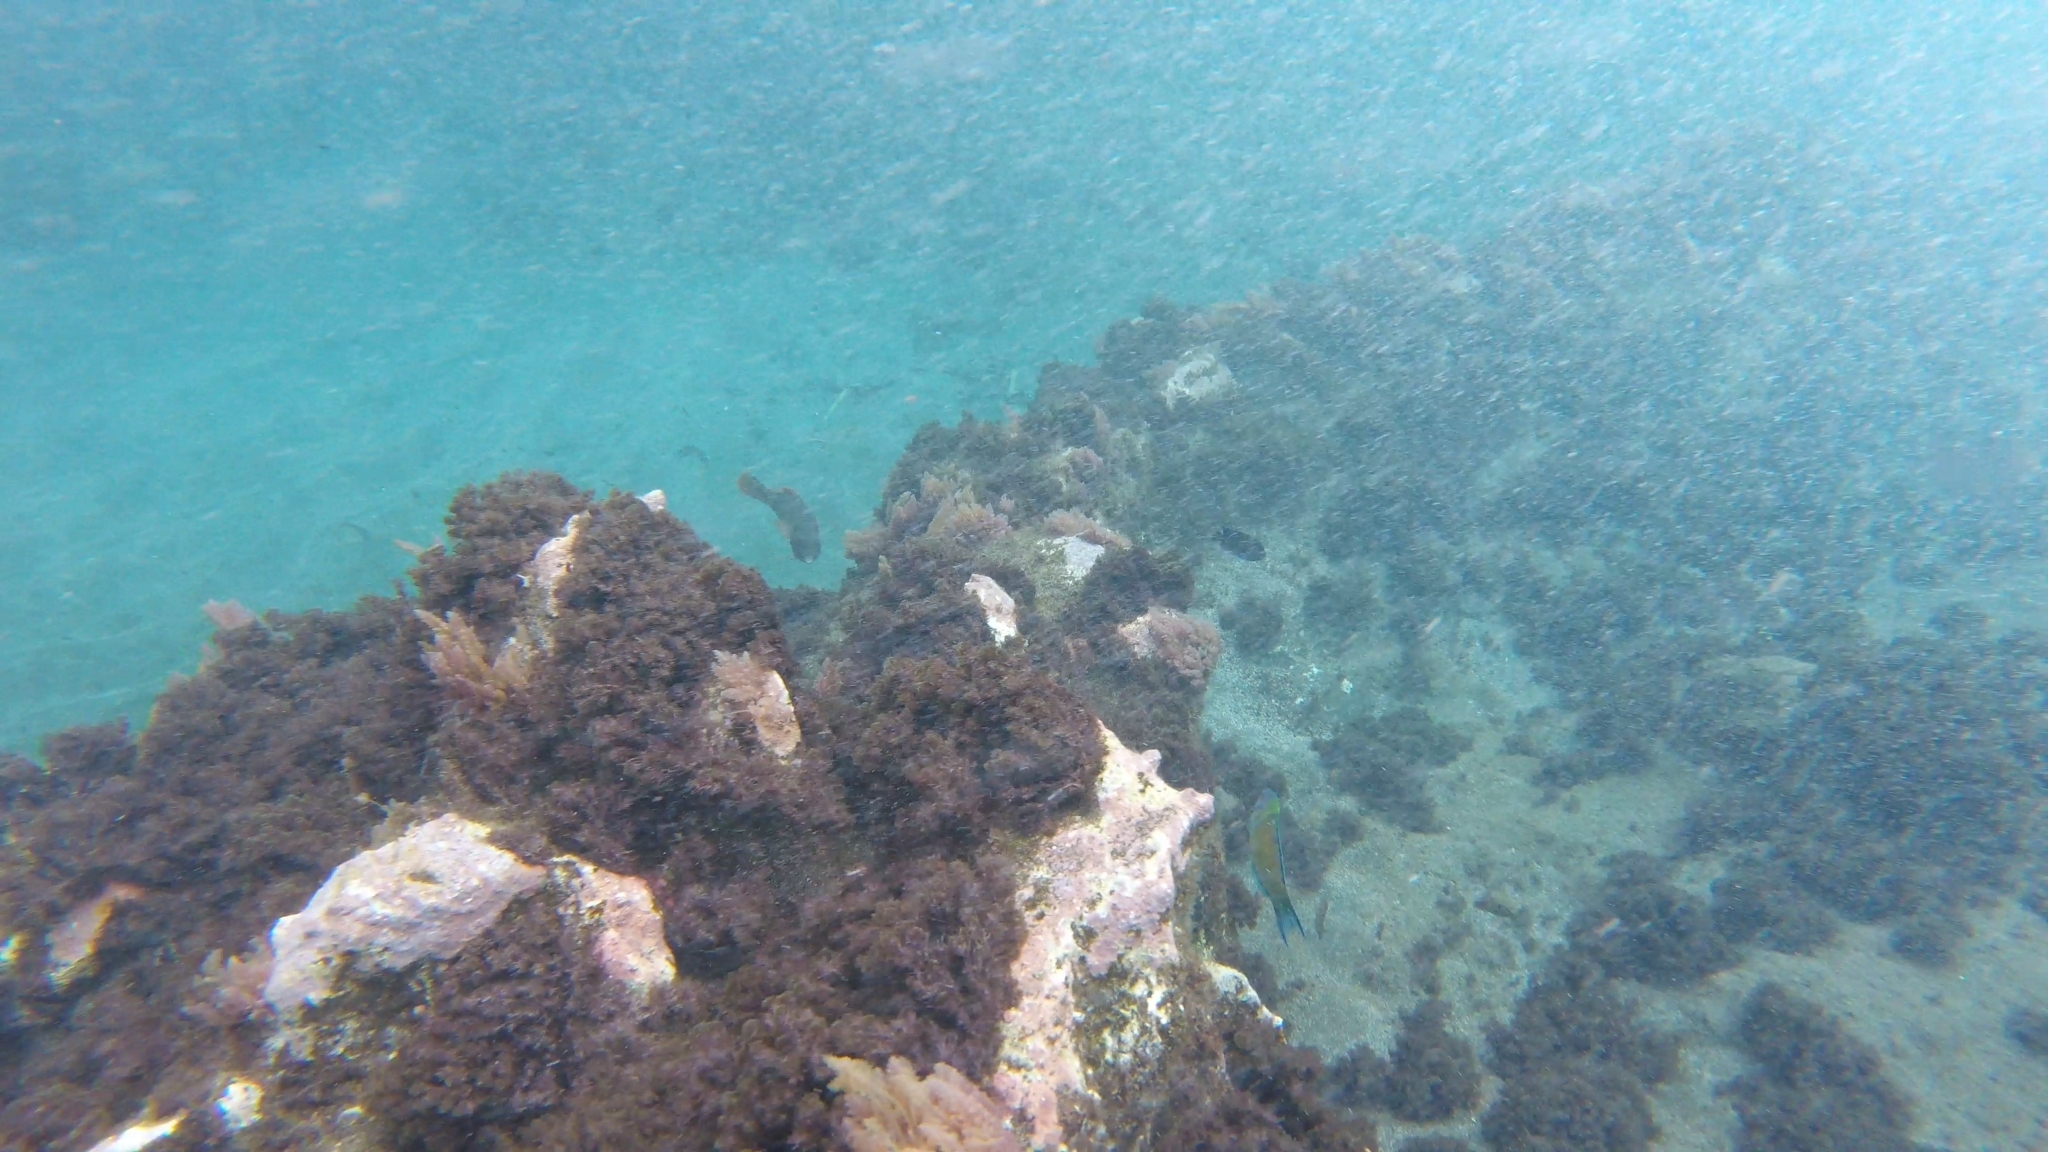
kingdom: Animalia
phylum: Chordata
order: Perciformes
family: Scaridae
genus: Sparisoma
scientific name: Sparisoma cretense
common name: Parrotfish
